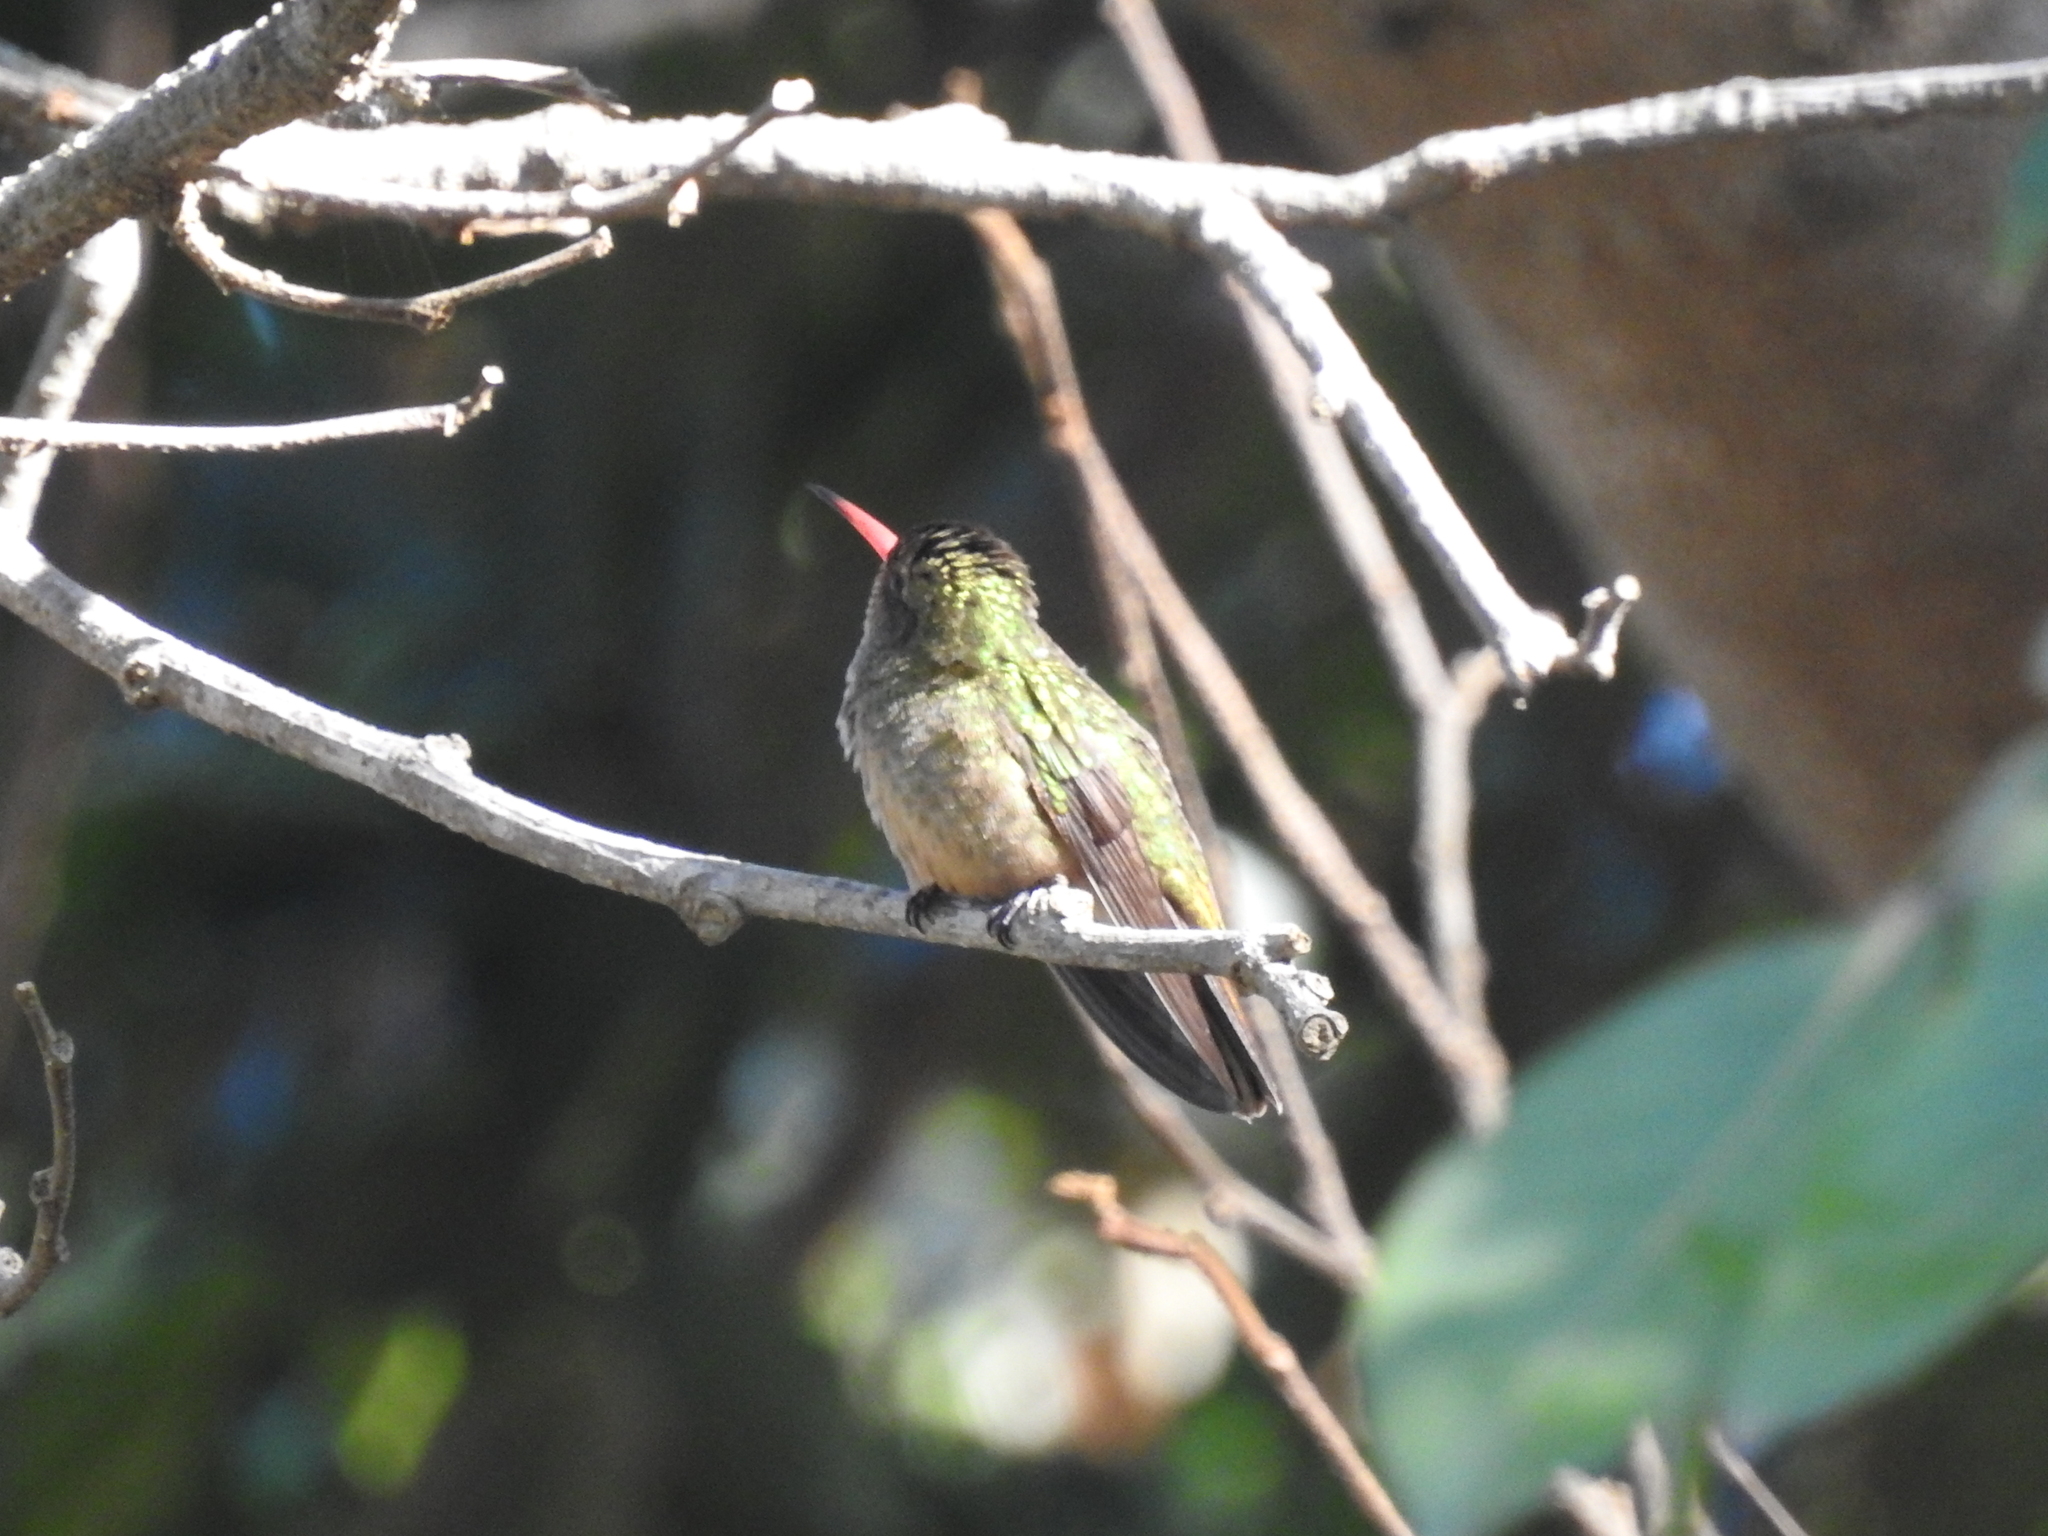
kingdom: Animalia
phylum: Chordata
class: Aves
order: Apodiformes
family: Trochilidae
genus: Hylocharis
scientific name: Hylocharis chrysura
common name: Gilded sapphire
